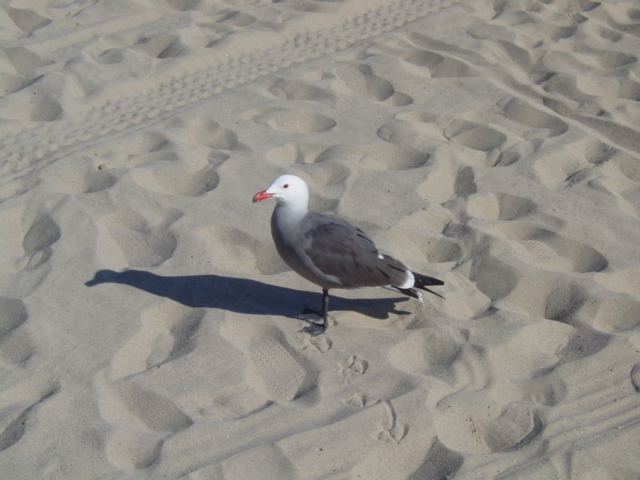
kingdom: Animalia
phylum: Chordata
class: Aves
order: Charadriiformes
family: Laridae
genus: Larus
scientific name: Larus heermanni
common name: Heermann's gull
